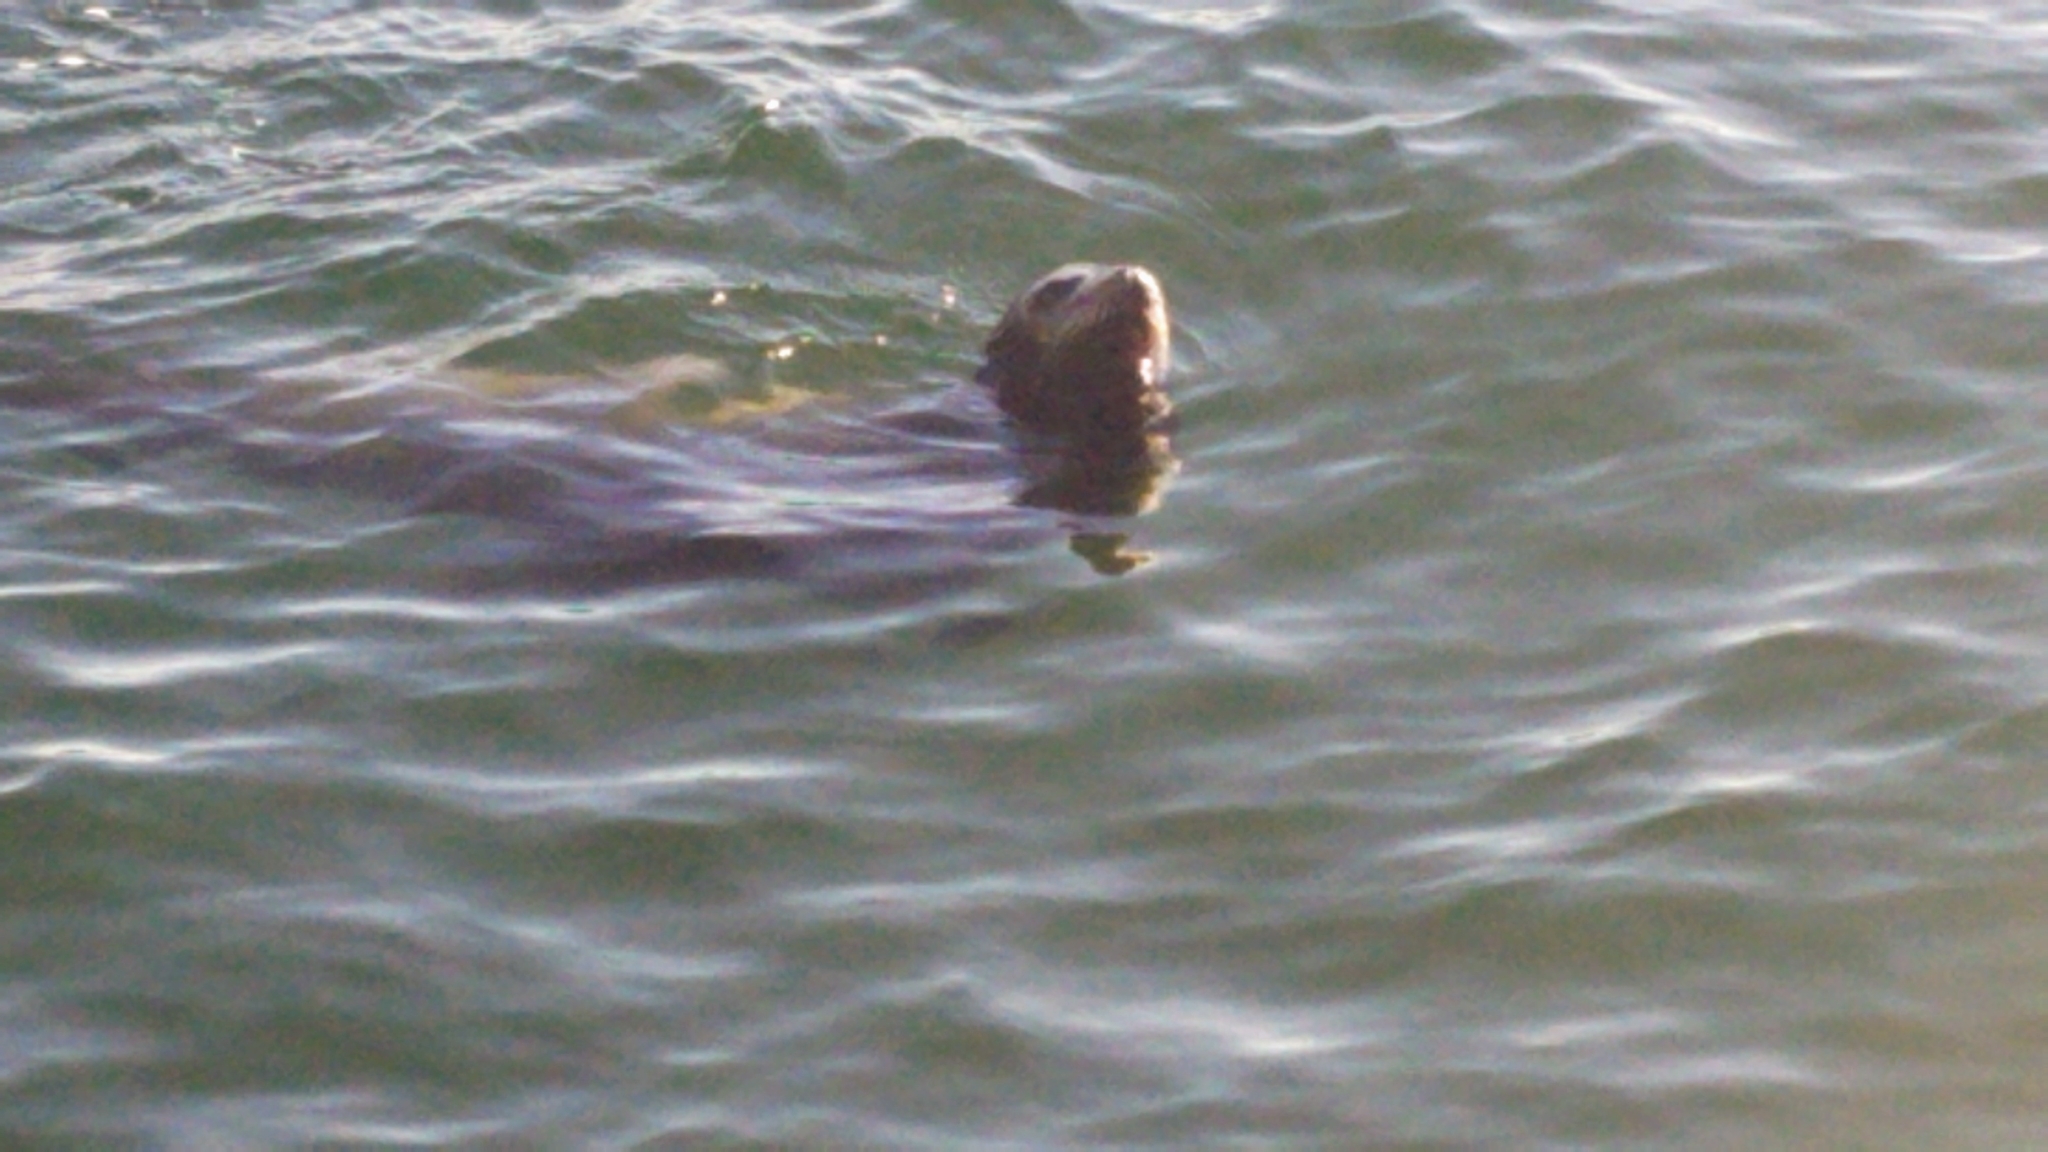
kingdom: Animalia
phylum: Chordata
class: Mammalia
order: Carnivora
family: Otariidae
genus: Zalophus
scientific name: Zalophus californianus
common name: California sea lion
